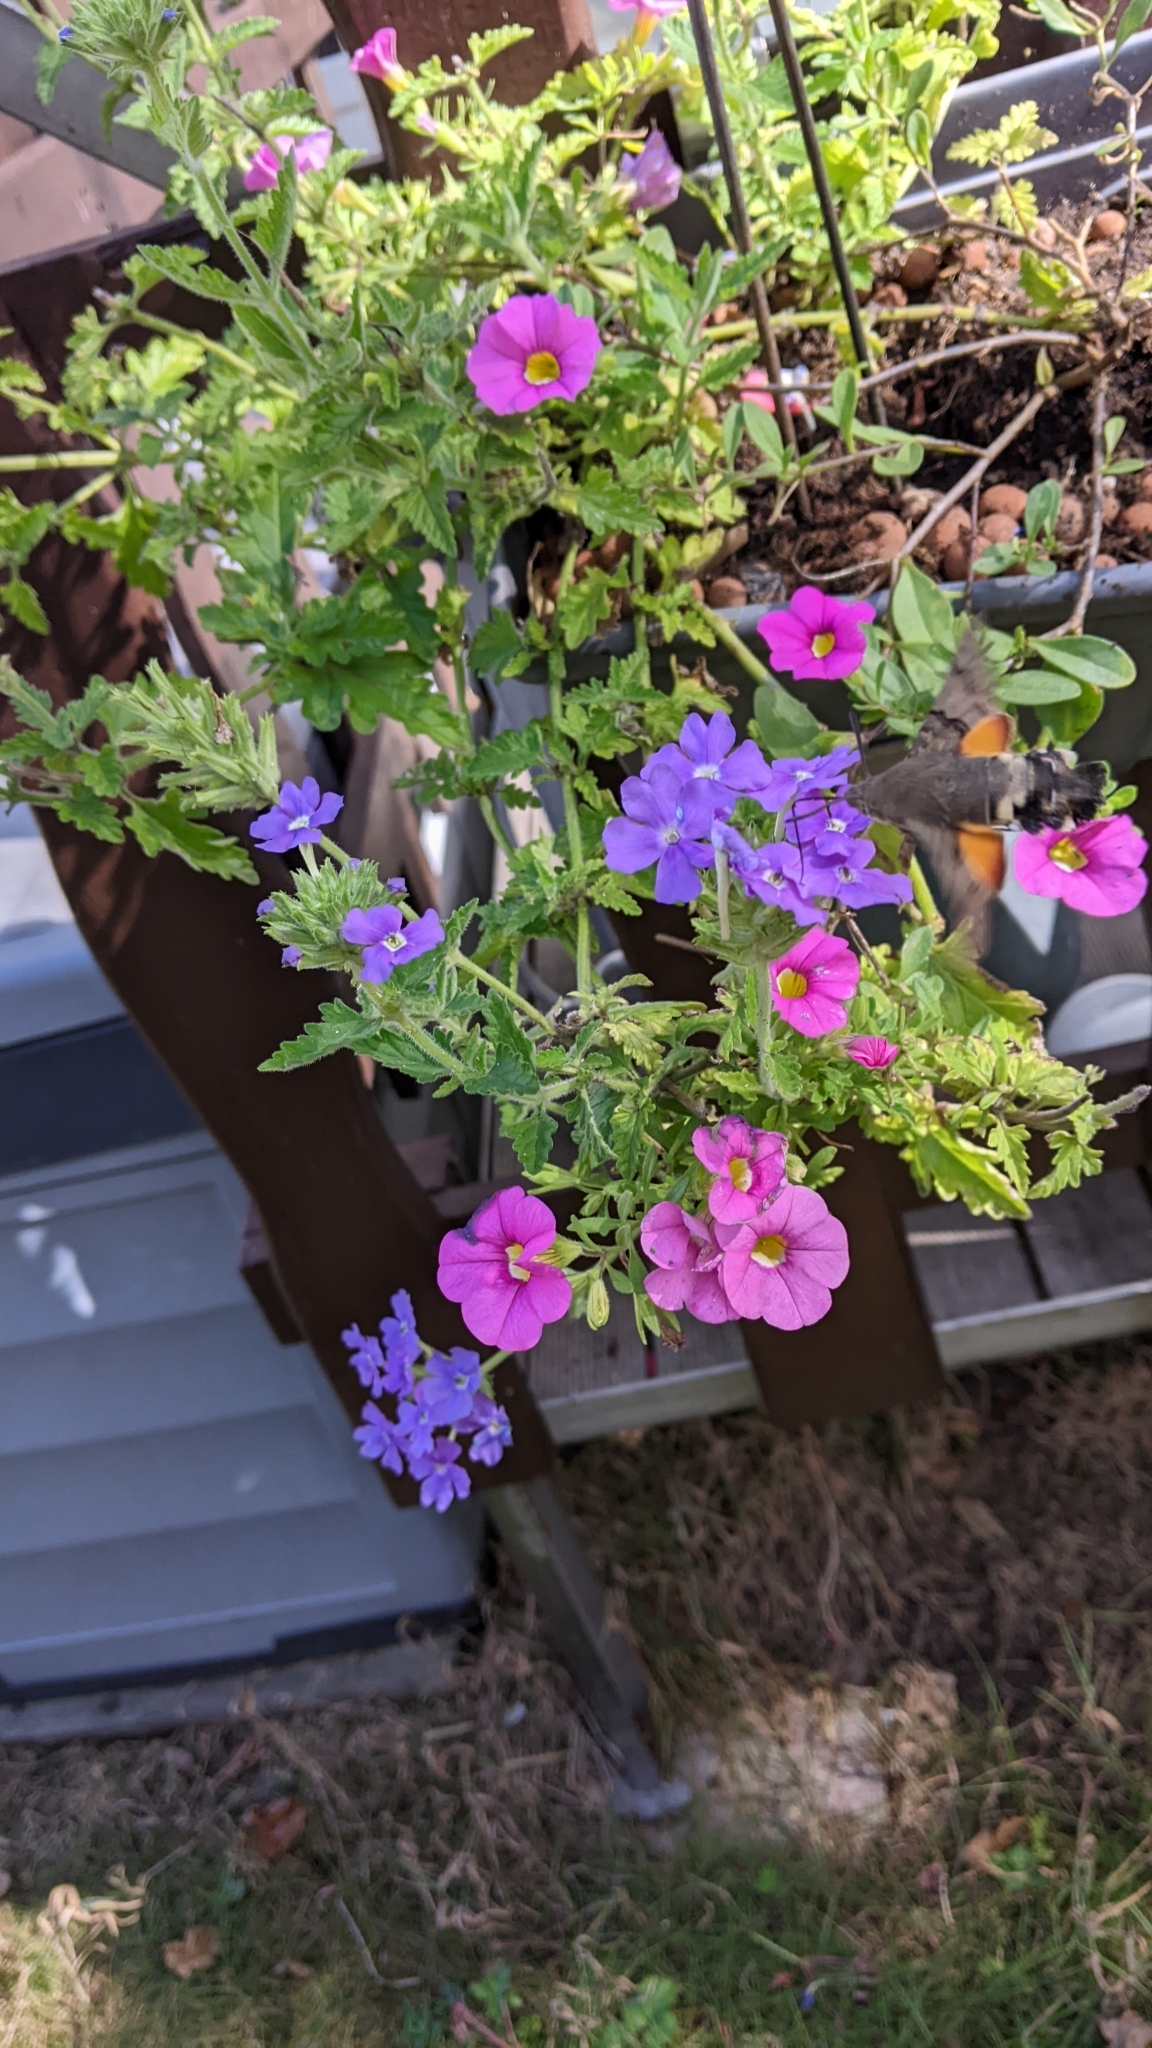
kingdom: Animalia
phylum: Arthropoda
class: Insecta
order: Lepidoptera
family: Sphingidae
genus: Macroglossum
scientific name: Macroglossum stellatarum
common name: Humming-bird hawk-moth
